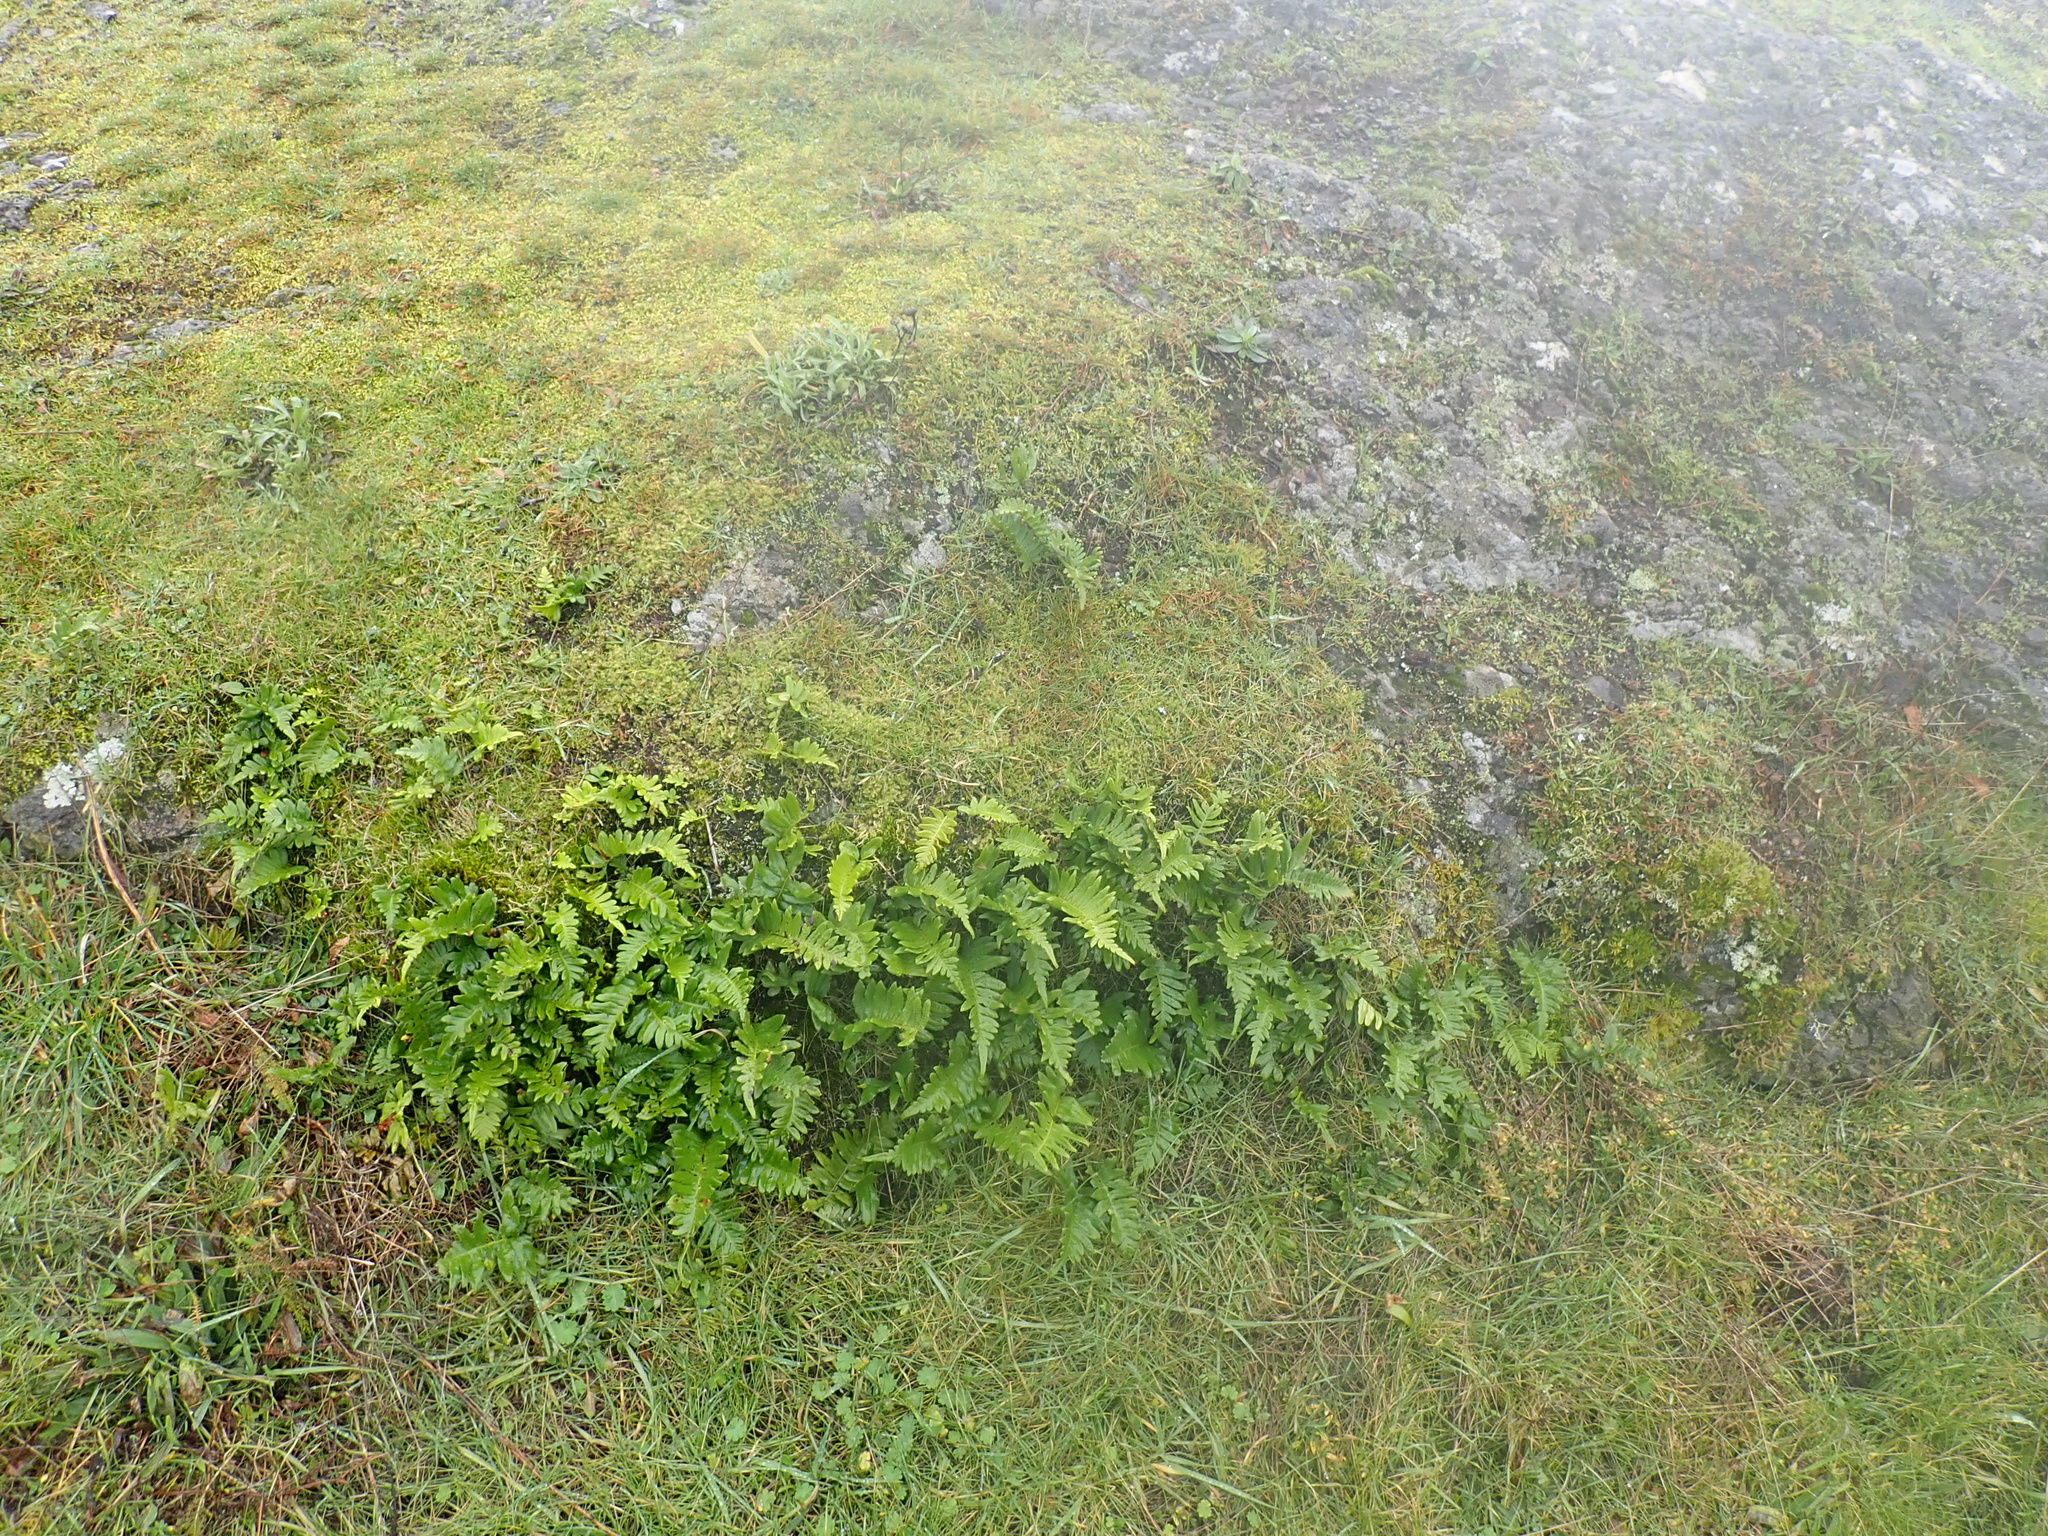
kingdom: Plantae
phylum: Tracheophyta
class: Polypodiopsida
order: Polypodiales
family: Polypodiaceae
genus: Polypodium
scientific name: Polypodium glycyrrhiza
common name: Licorice fern
